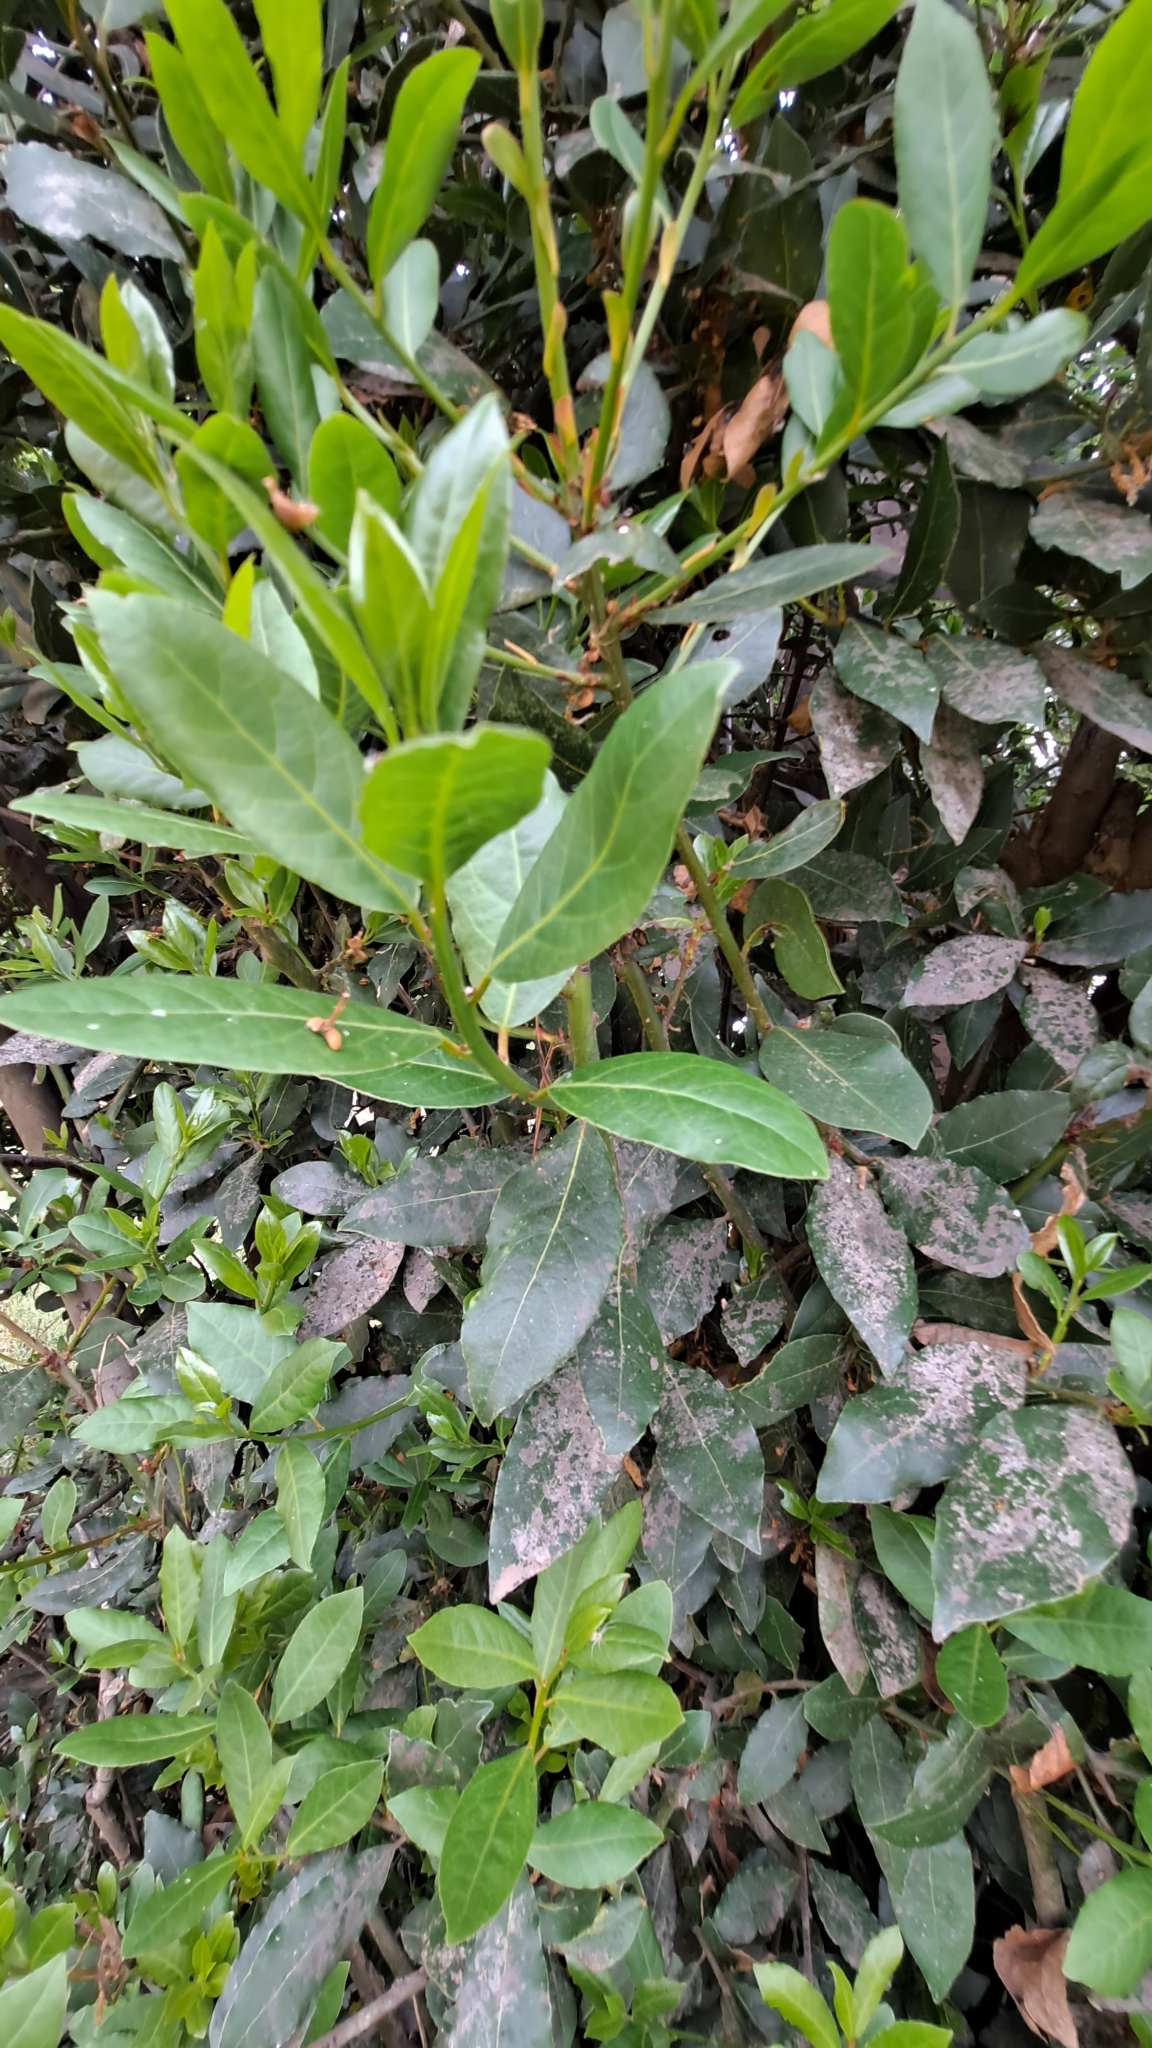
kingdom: Plantae
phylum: Tracheophyta
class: Magnoliopsida
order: Laurales
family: Lauraceae
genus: Laurus
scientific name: Laurus nobilis
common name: Bay
